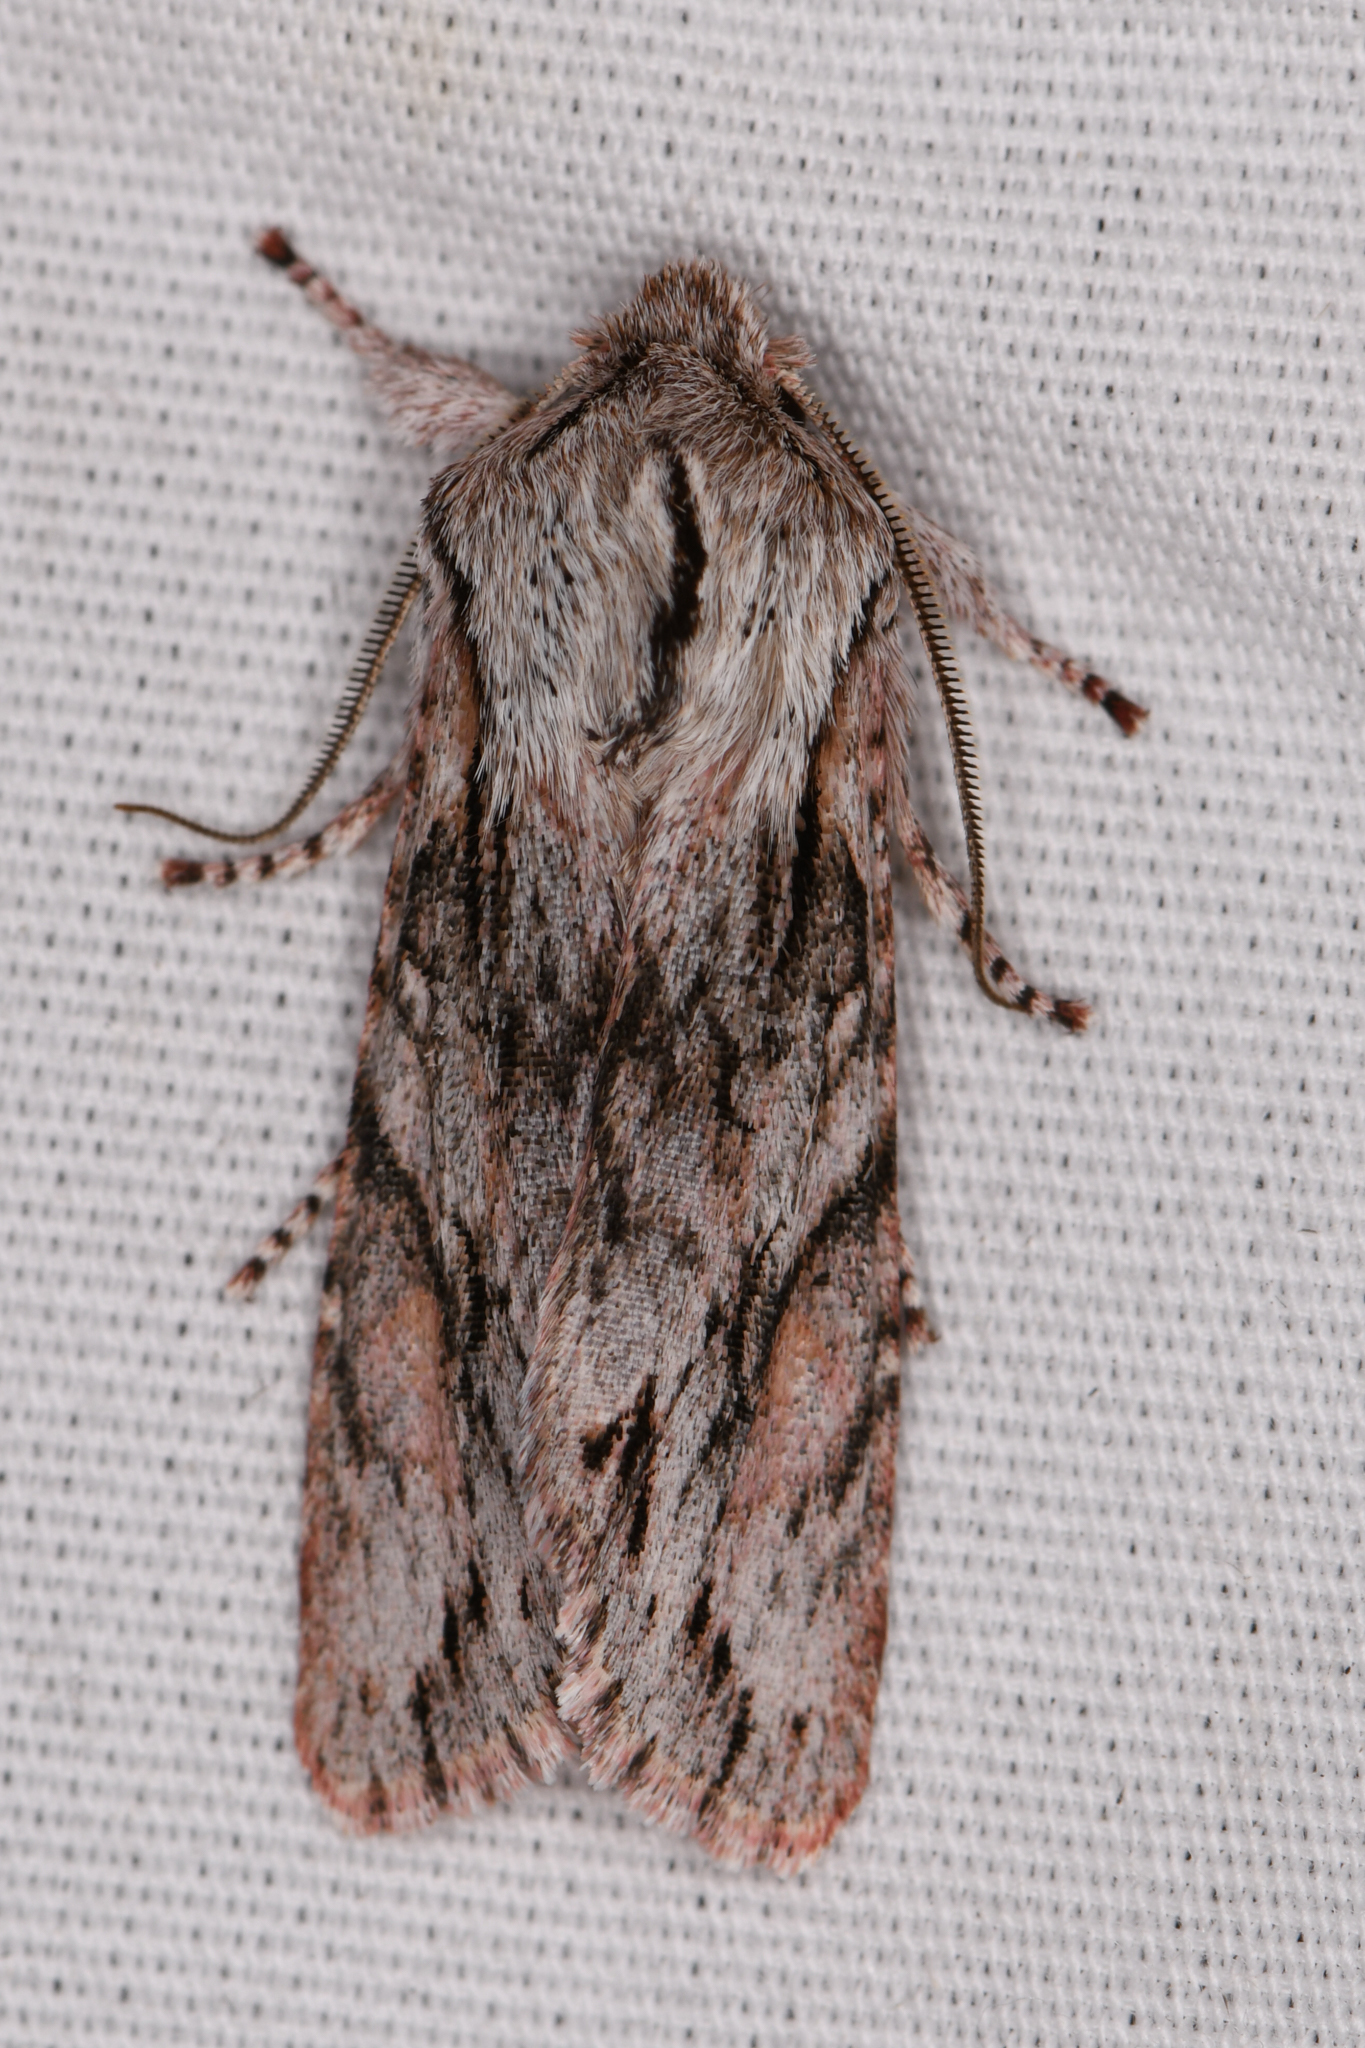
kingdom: Animalia
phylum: Arthropoda
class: Insecta
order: Lepidoptera
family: Noctuidae
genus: Egira
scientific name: Egira crucialis
